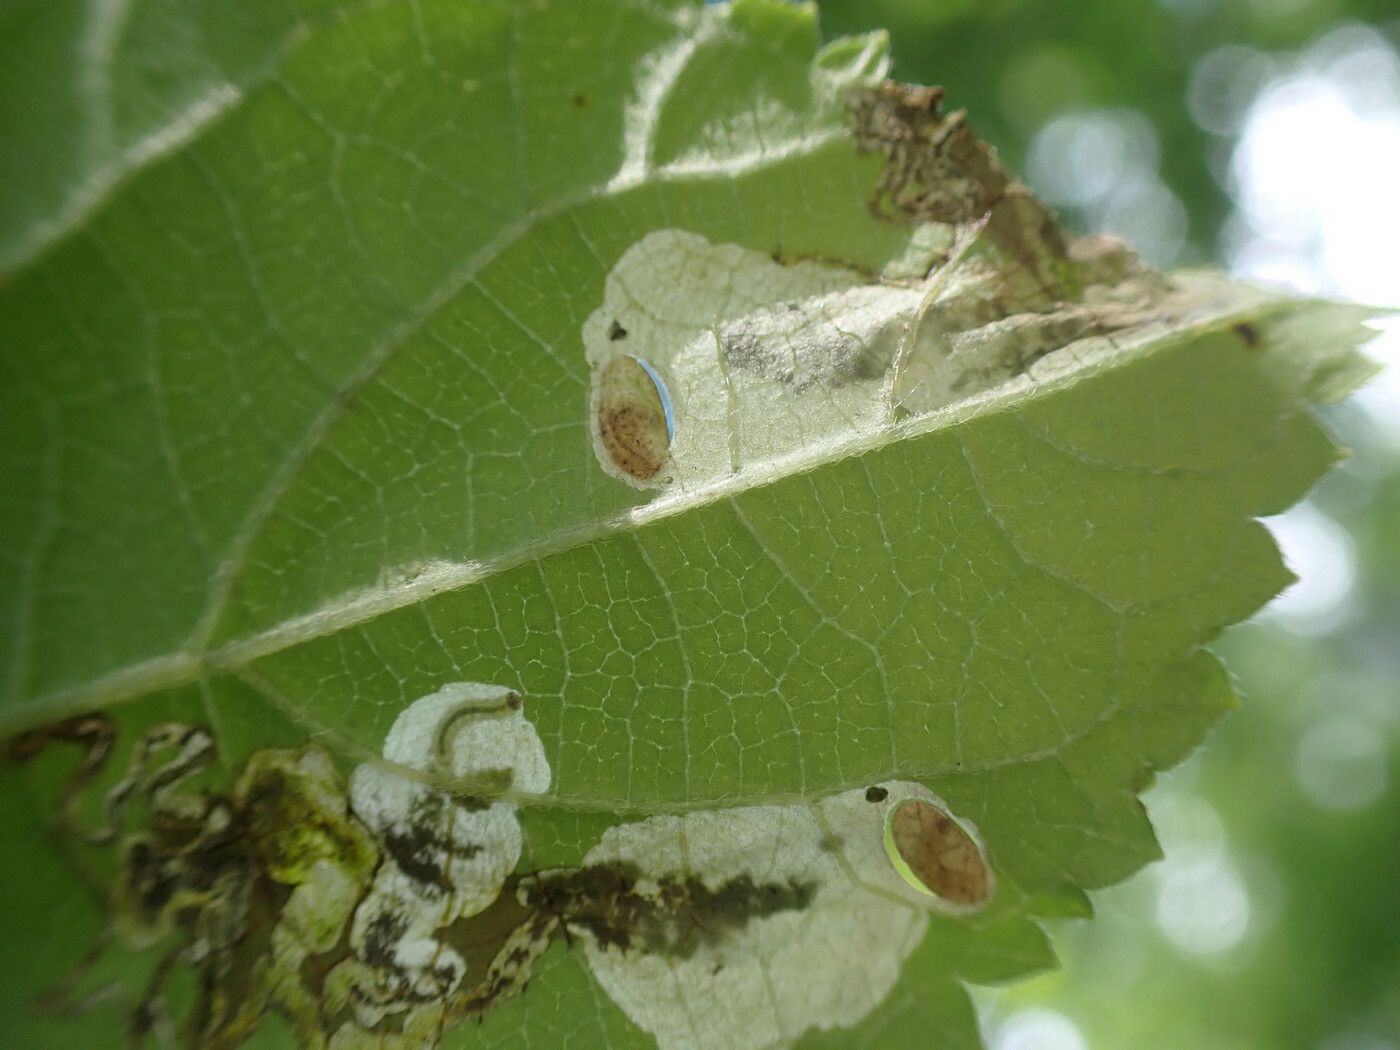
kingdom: Animalia
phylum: Arthropoda
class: Insecta
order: Lepidoptera
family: Heliozelidae
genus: Aspilanta
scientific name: Aspilanta hydrangaeella
